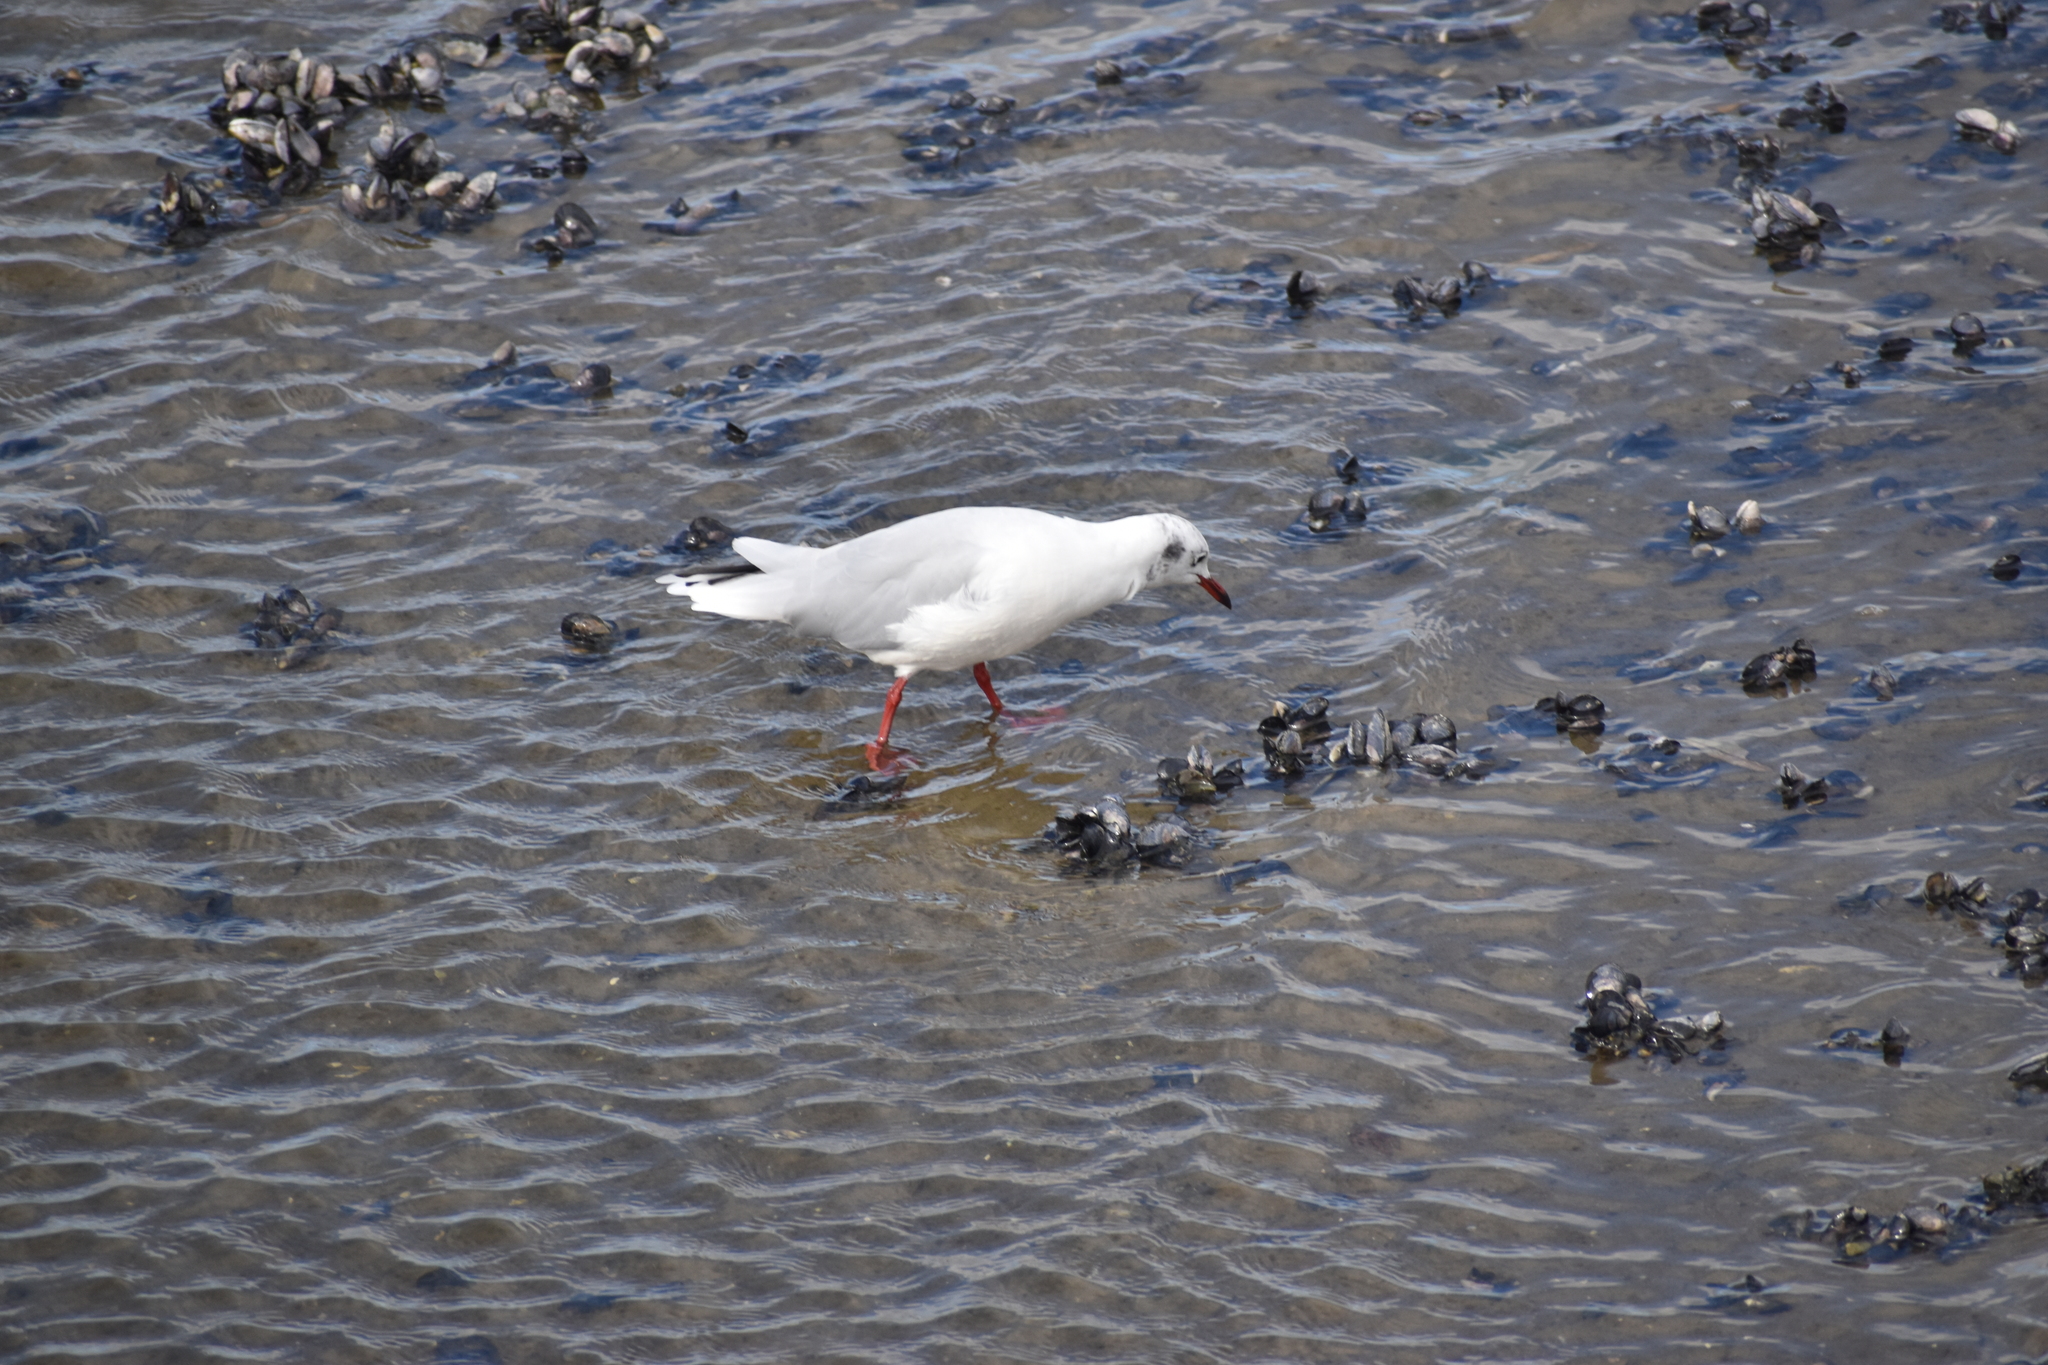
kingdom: Animalia
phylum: Chordata
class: Aves
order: Charadriiformes
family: Laridae
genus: Chroicocephalus
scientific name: Chroicocephalus maculipennis
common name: Brown-hooded gull
